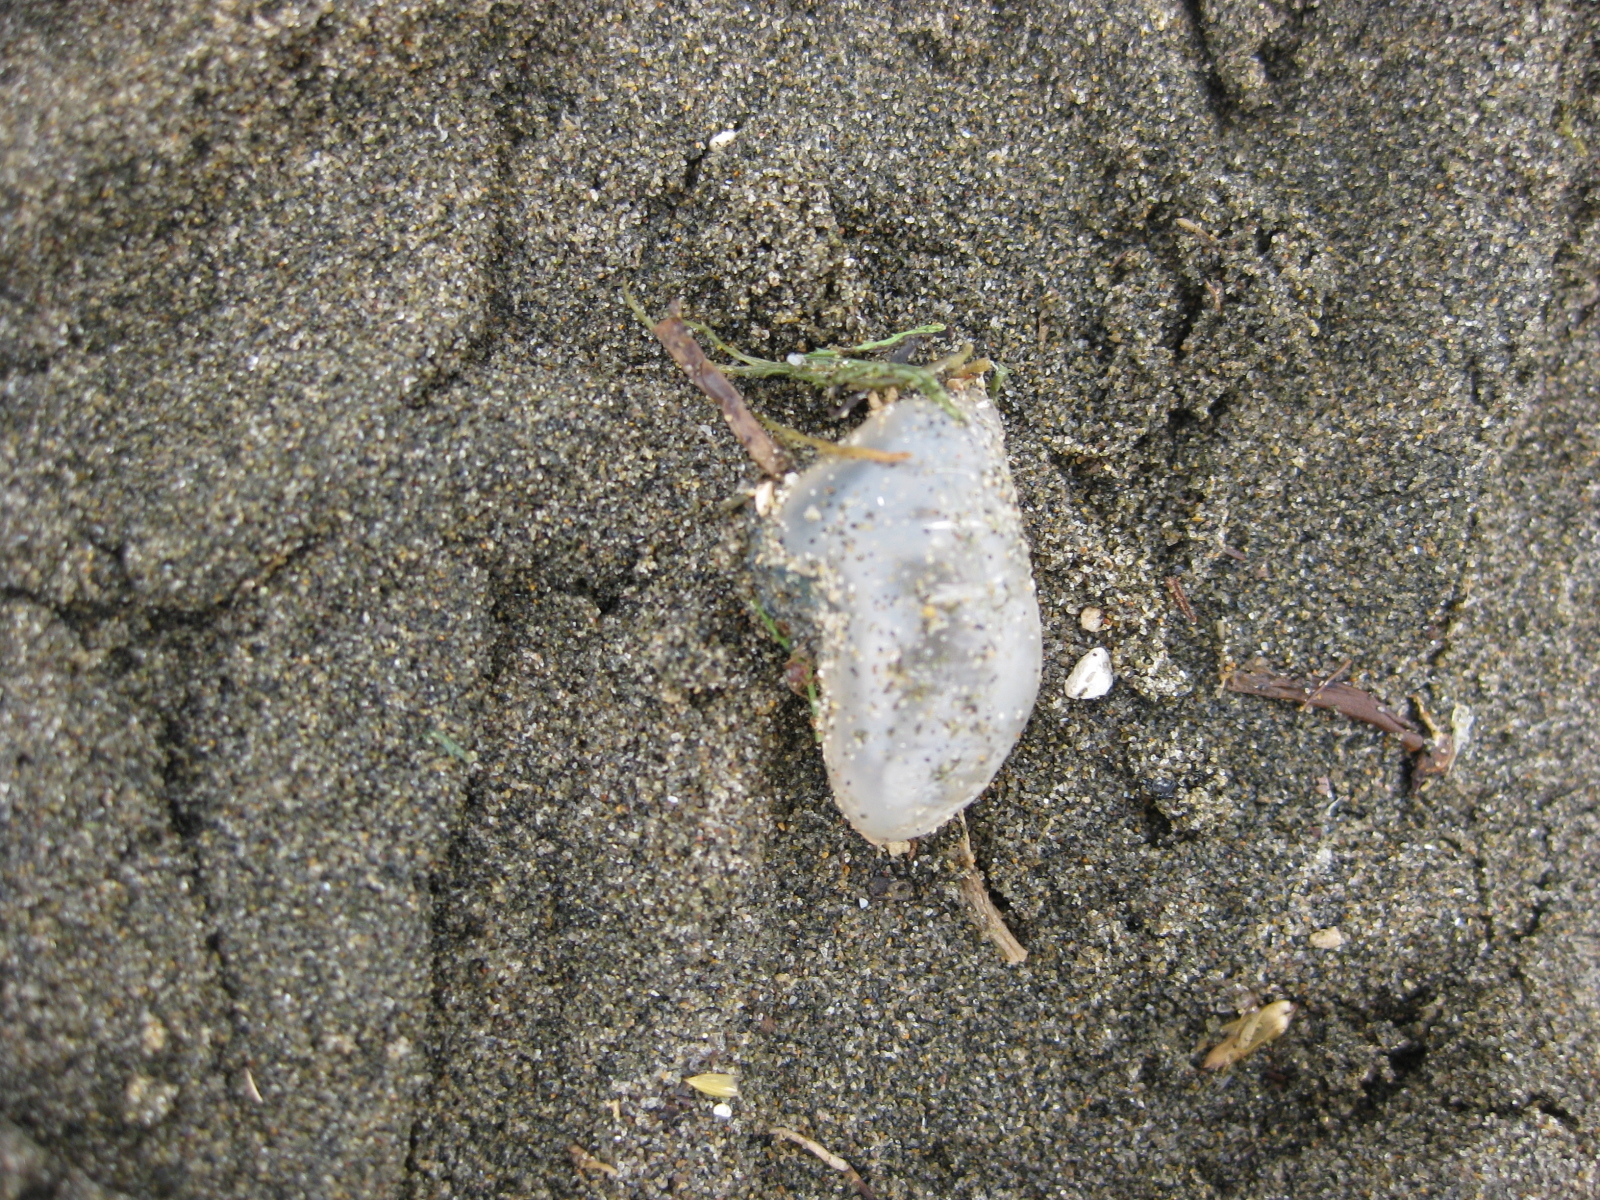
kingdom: Animalia
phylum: Cnidaria
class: Hydrozoa
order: Siphonophorae
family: Physaliidae
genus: Physalia
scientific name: Physalia physalis
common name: Portuguese man-of-war
